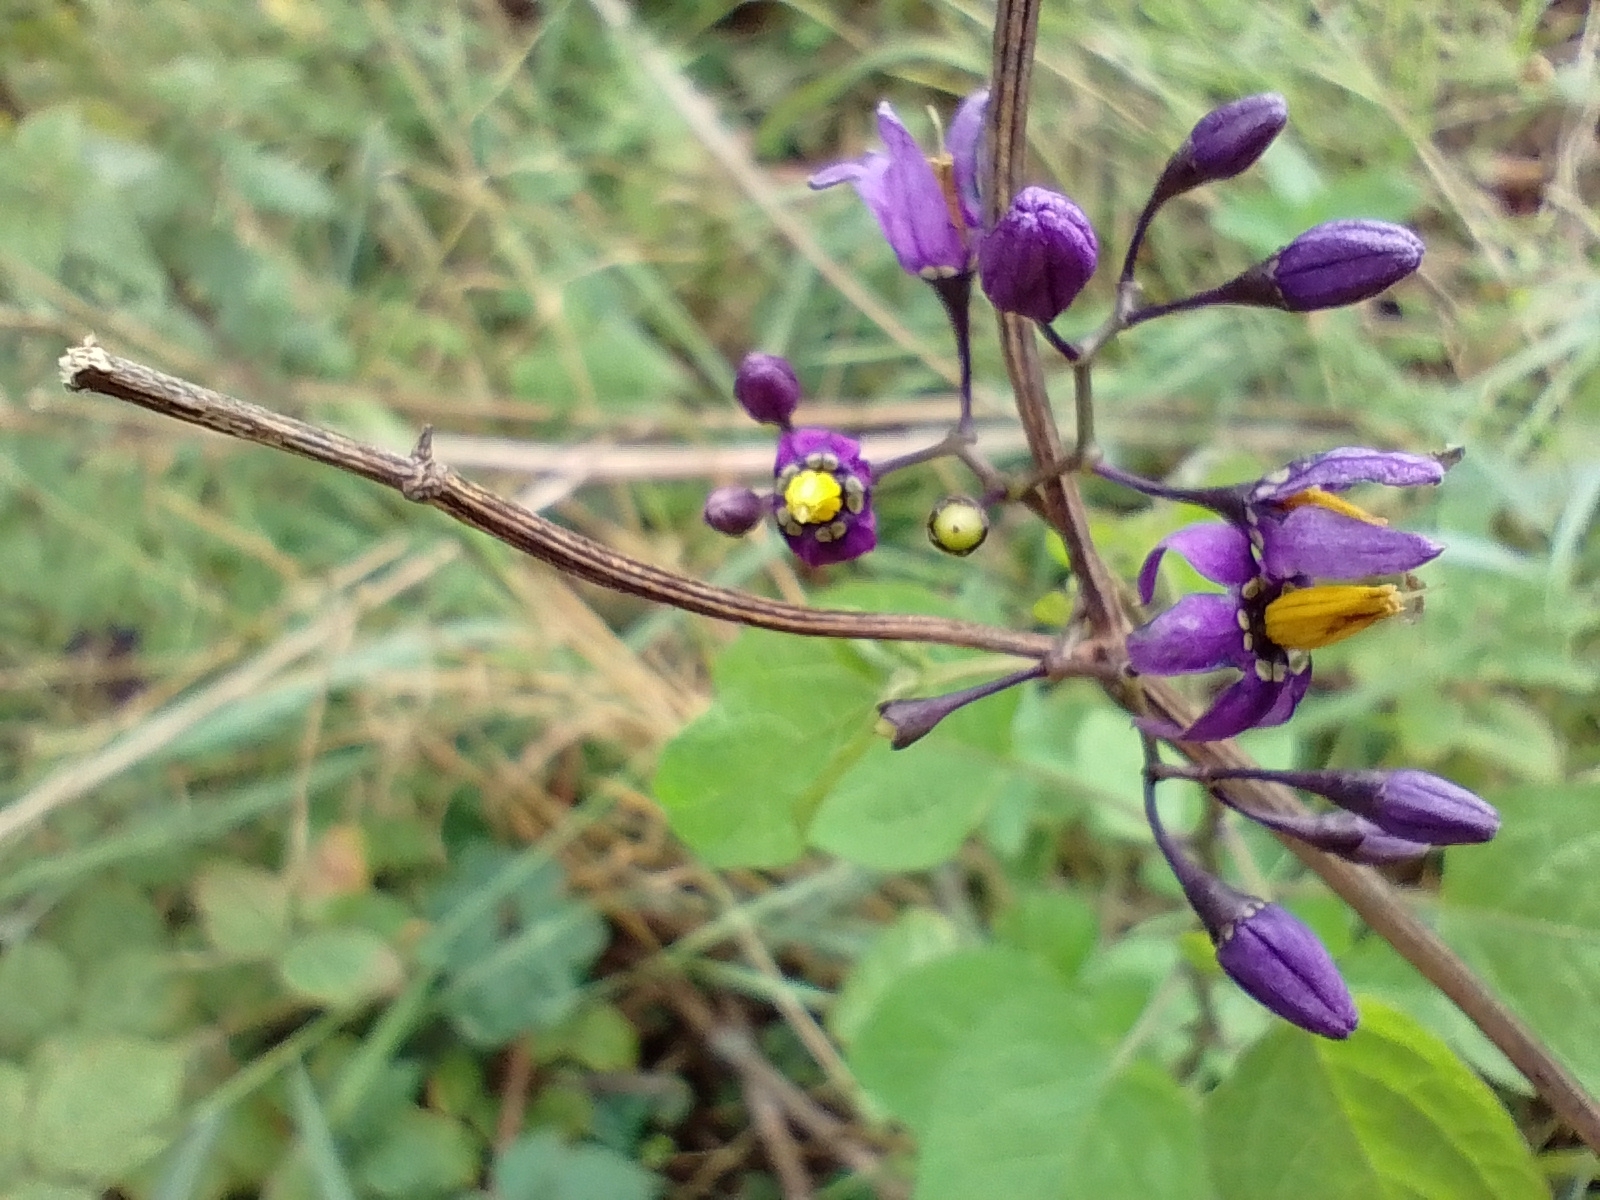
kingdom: Plantae
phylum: Tracheophyta
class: Magnoliopsida
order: Solanales
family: Solanaceae
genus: Solanum
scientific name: Solanum dulcamara
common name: Climbing nightshade
